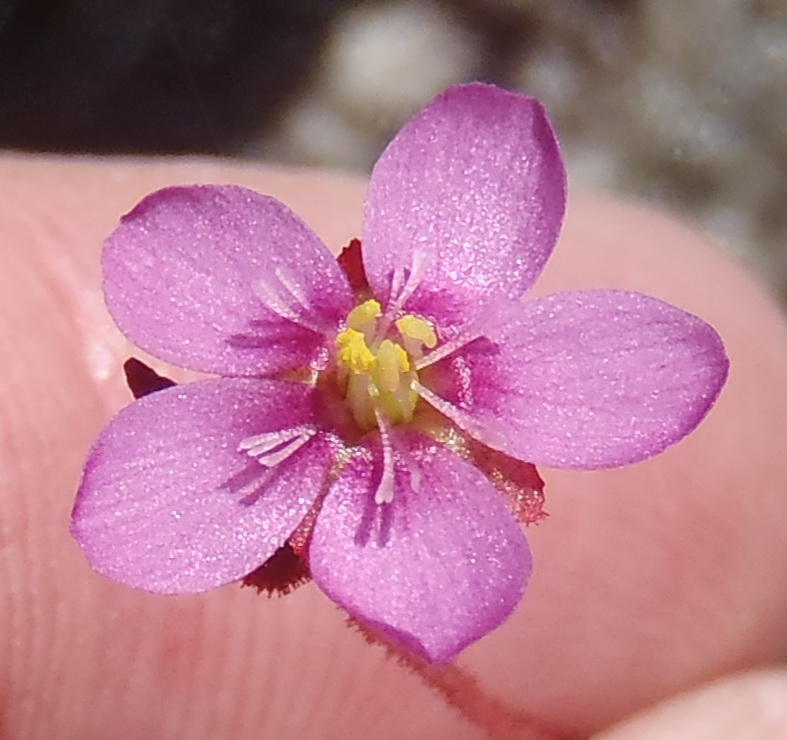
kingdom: Plantae
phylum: Tracheophyta
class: Magnoliopsida
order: Caryophyllales
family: Droseraceae
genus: Drosera
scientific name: Drosera aliciae
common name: Alice sundew
